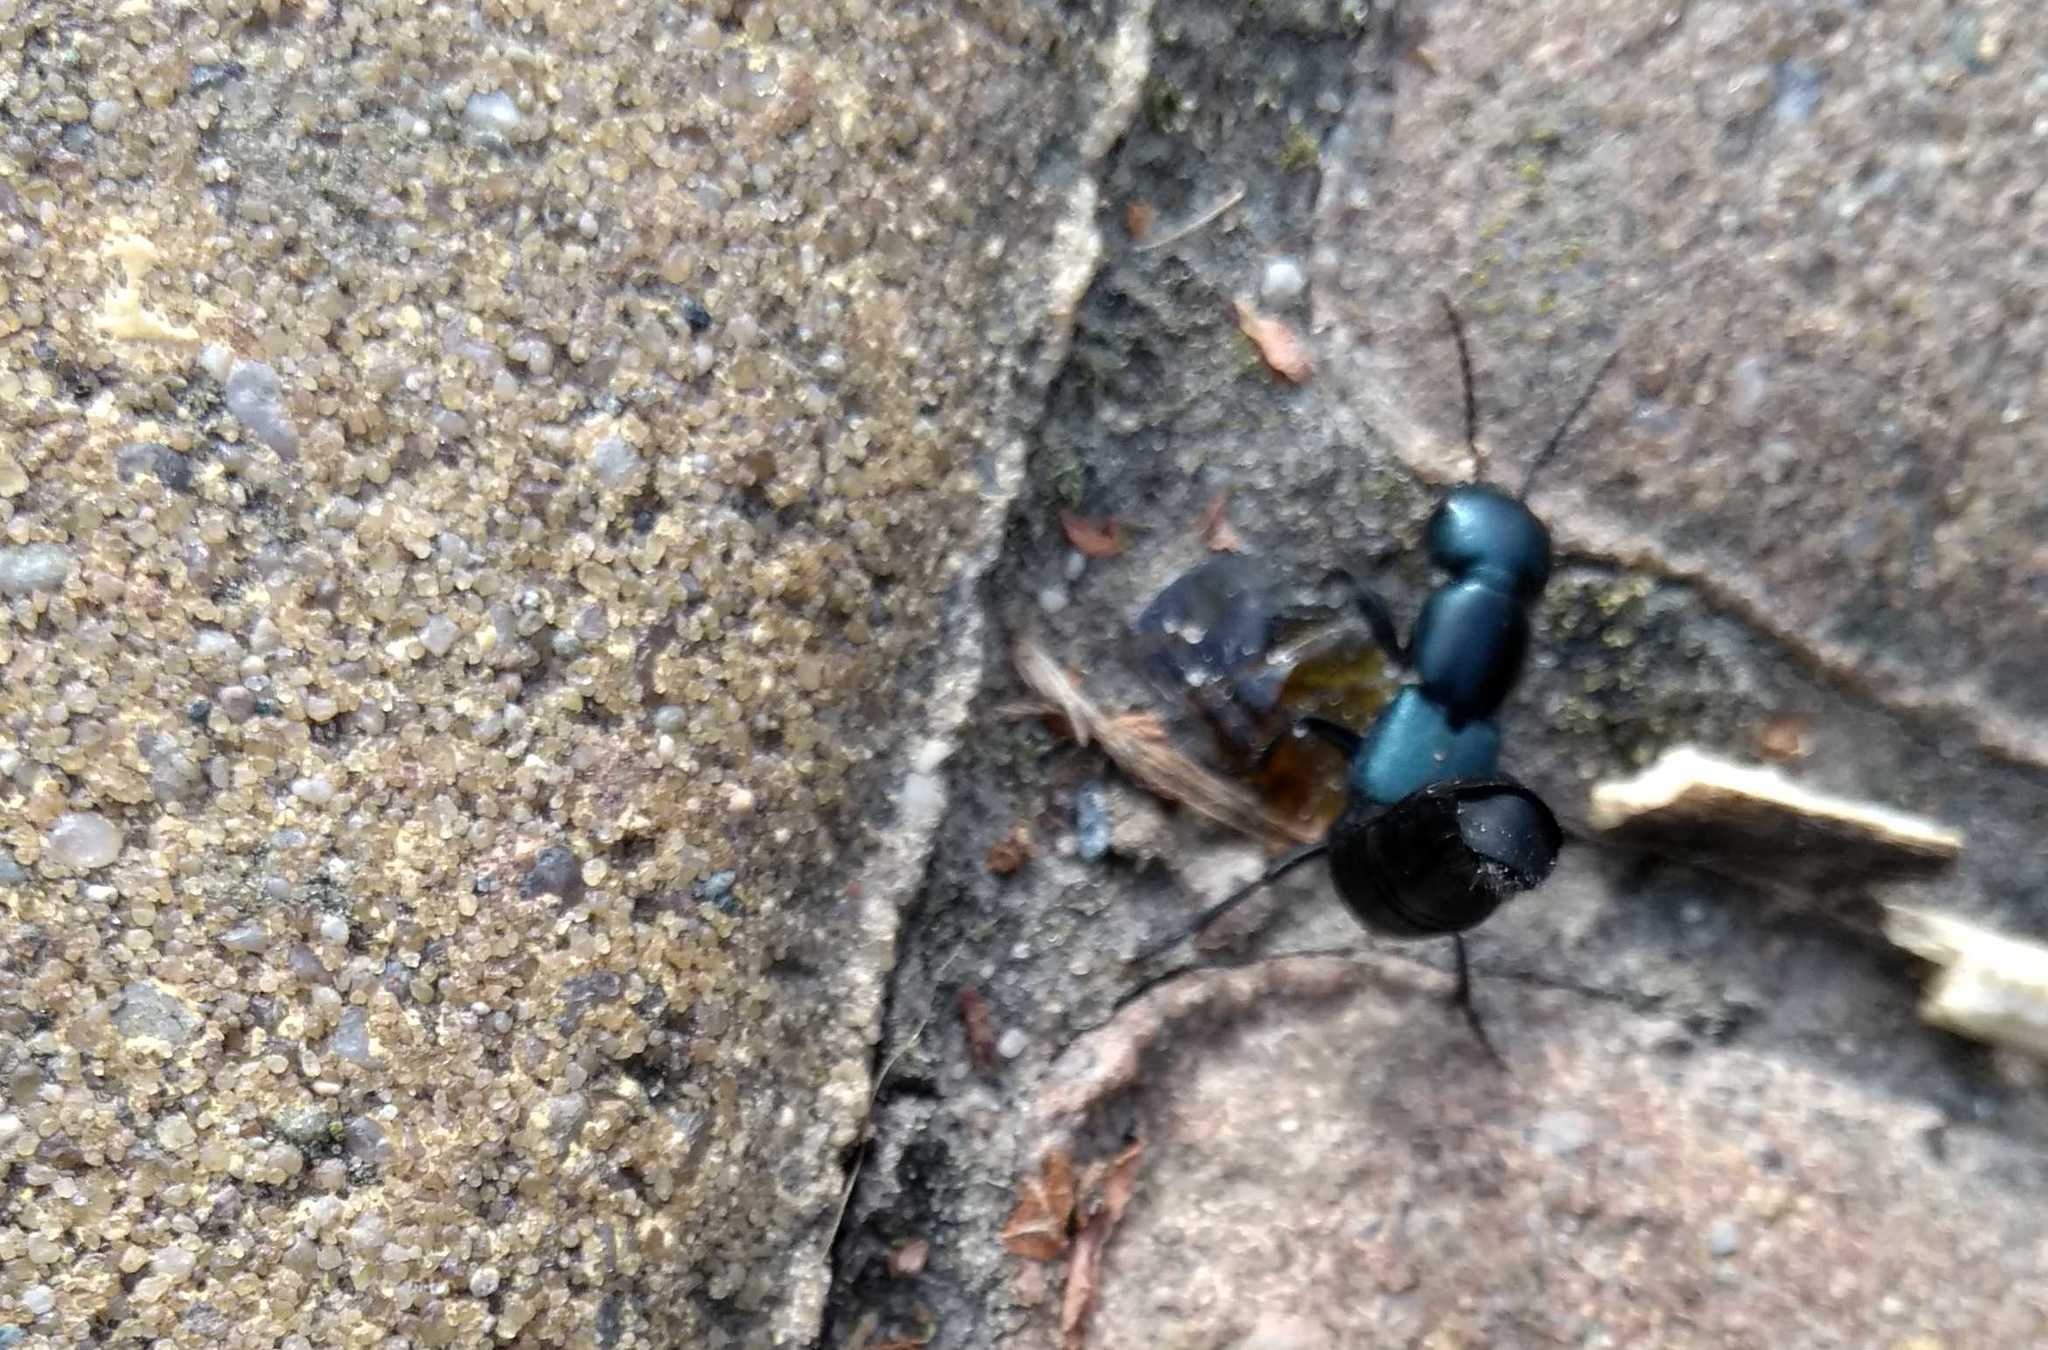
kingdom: Animalia
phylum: Arthropoda
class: Insecta
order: Coleoptera
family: Staphylinidae
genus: Ocypus
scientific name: Ocypus ophthalmicus
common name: Blue rove-beetle
